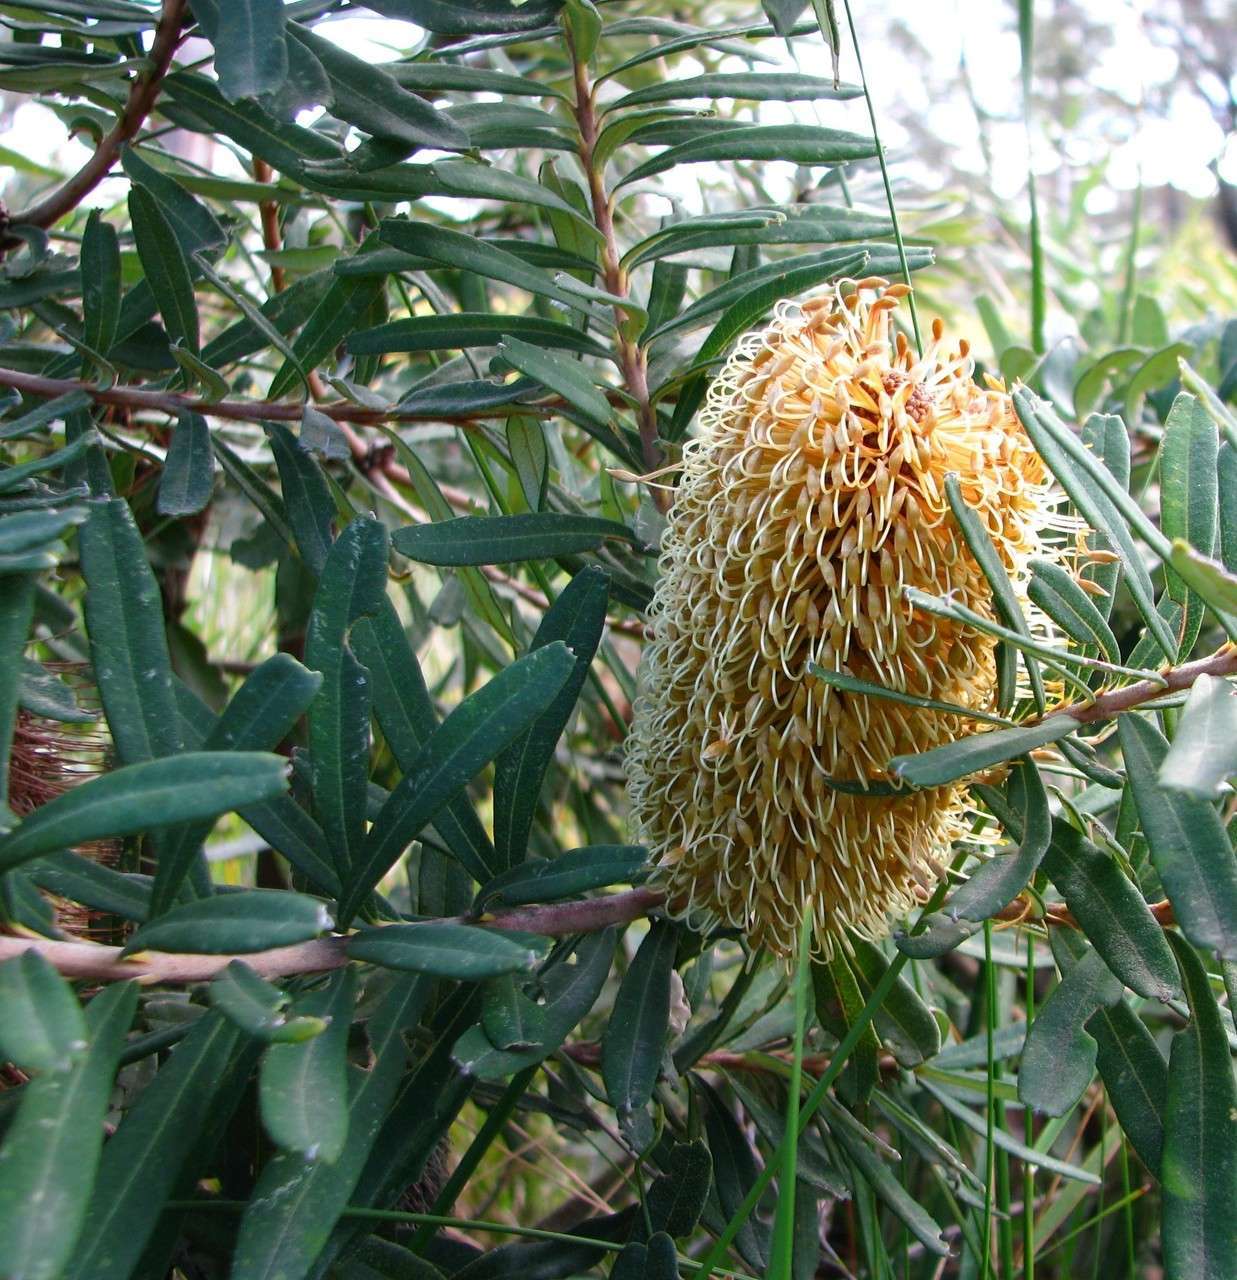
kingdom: Plantae
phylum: Tracheophyta
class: Magnoliopsida
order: Proteales
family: Proteaceae
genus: Banksia
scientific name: Banksia marginata
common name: Silver banksia
